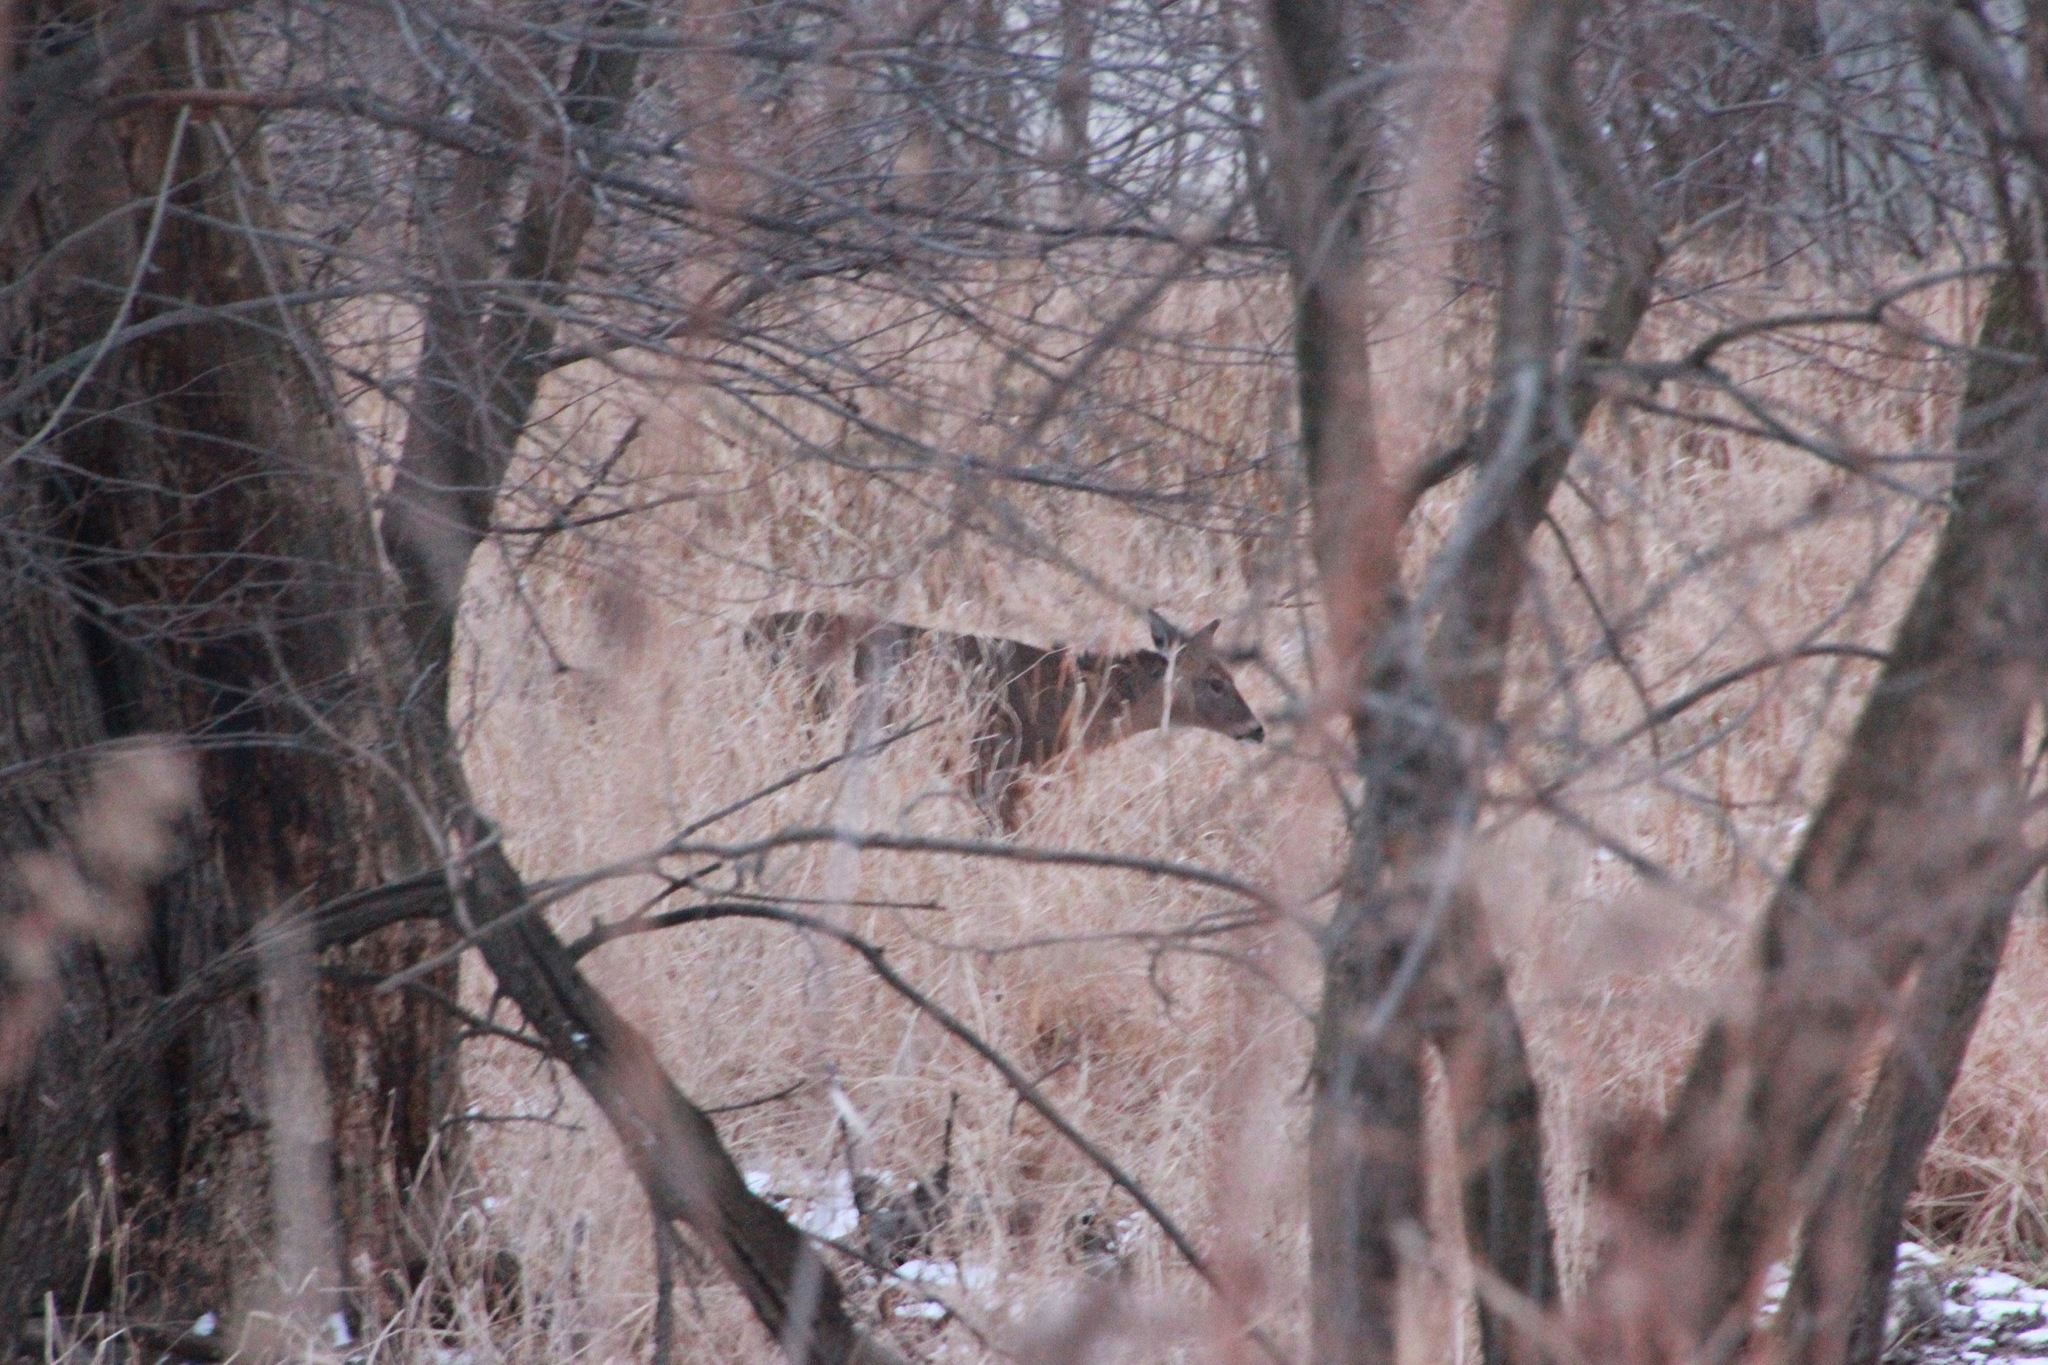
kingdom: Animalia
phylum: Chordata
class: Mammalia
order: Artiodactyla
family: Cervidae
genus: Odocoileus
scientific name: Odocoileus virginianus
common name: White-tailed deer
